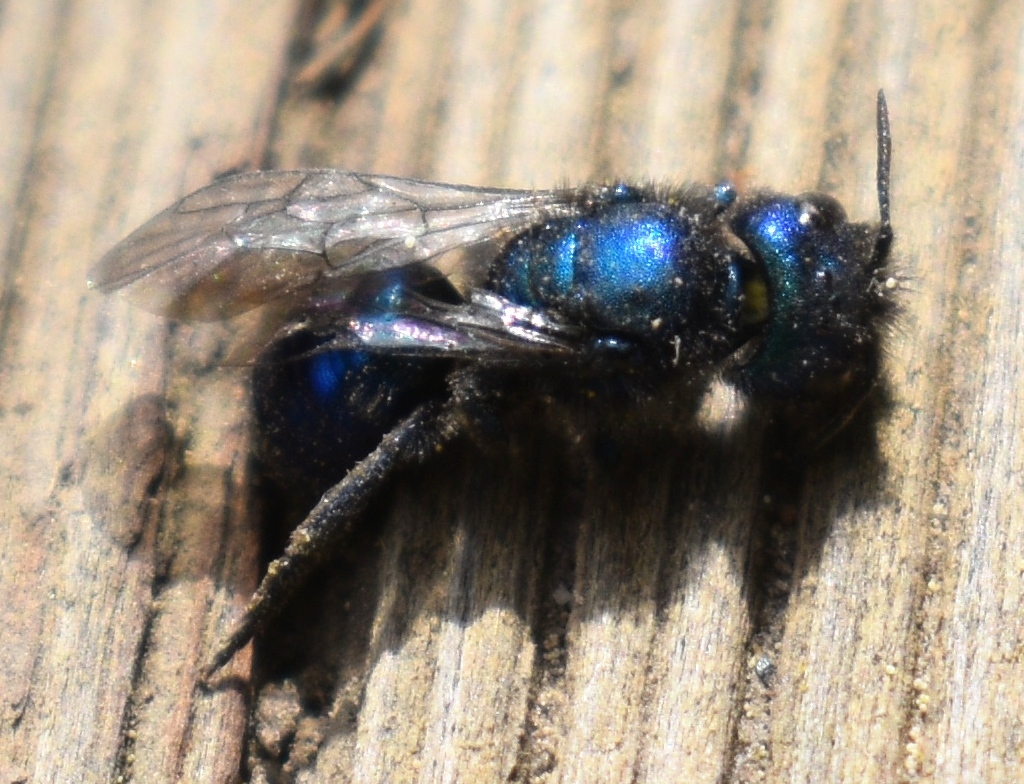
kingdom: Animalia
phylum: Arthropoda
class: Insecta
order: Hymenoptera
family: Megachilidae
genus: Osmia
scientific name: Osmia ribifloris
